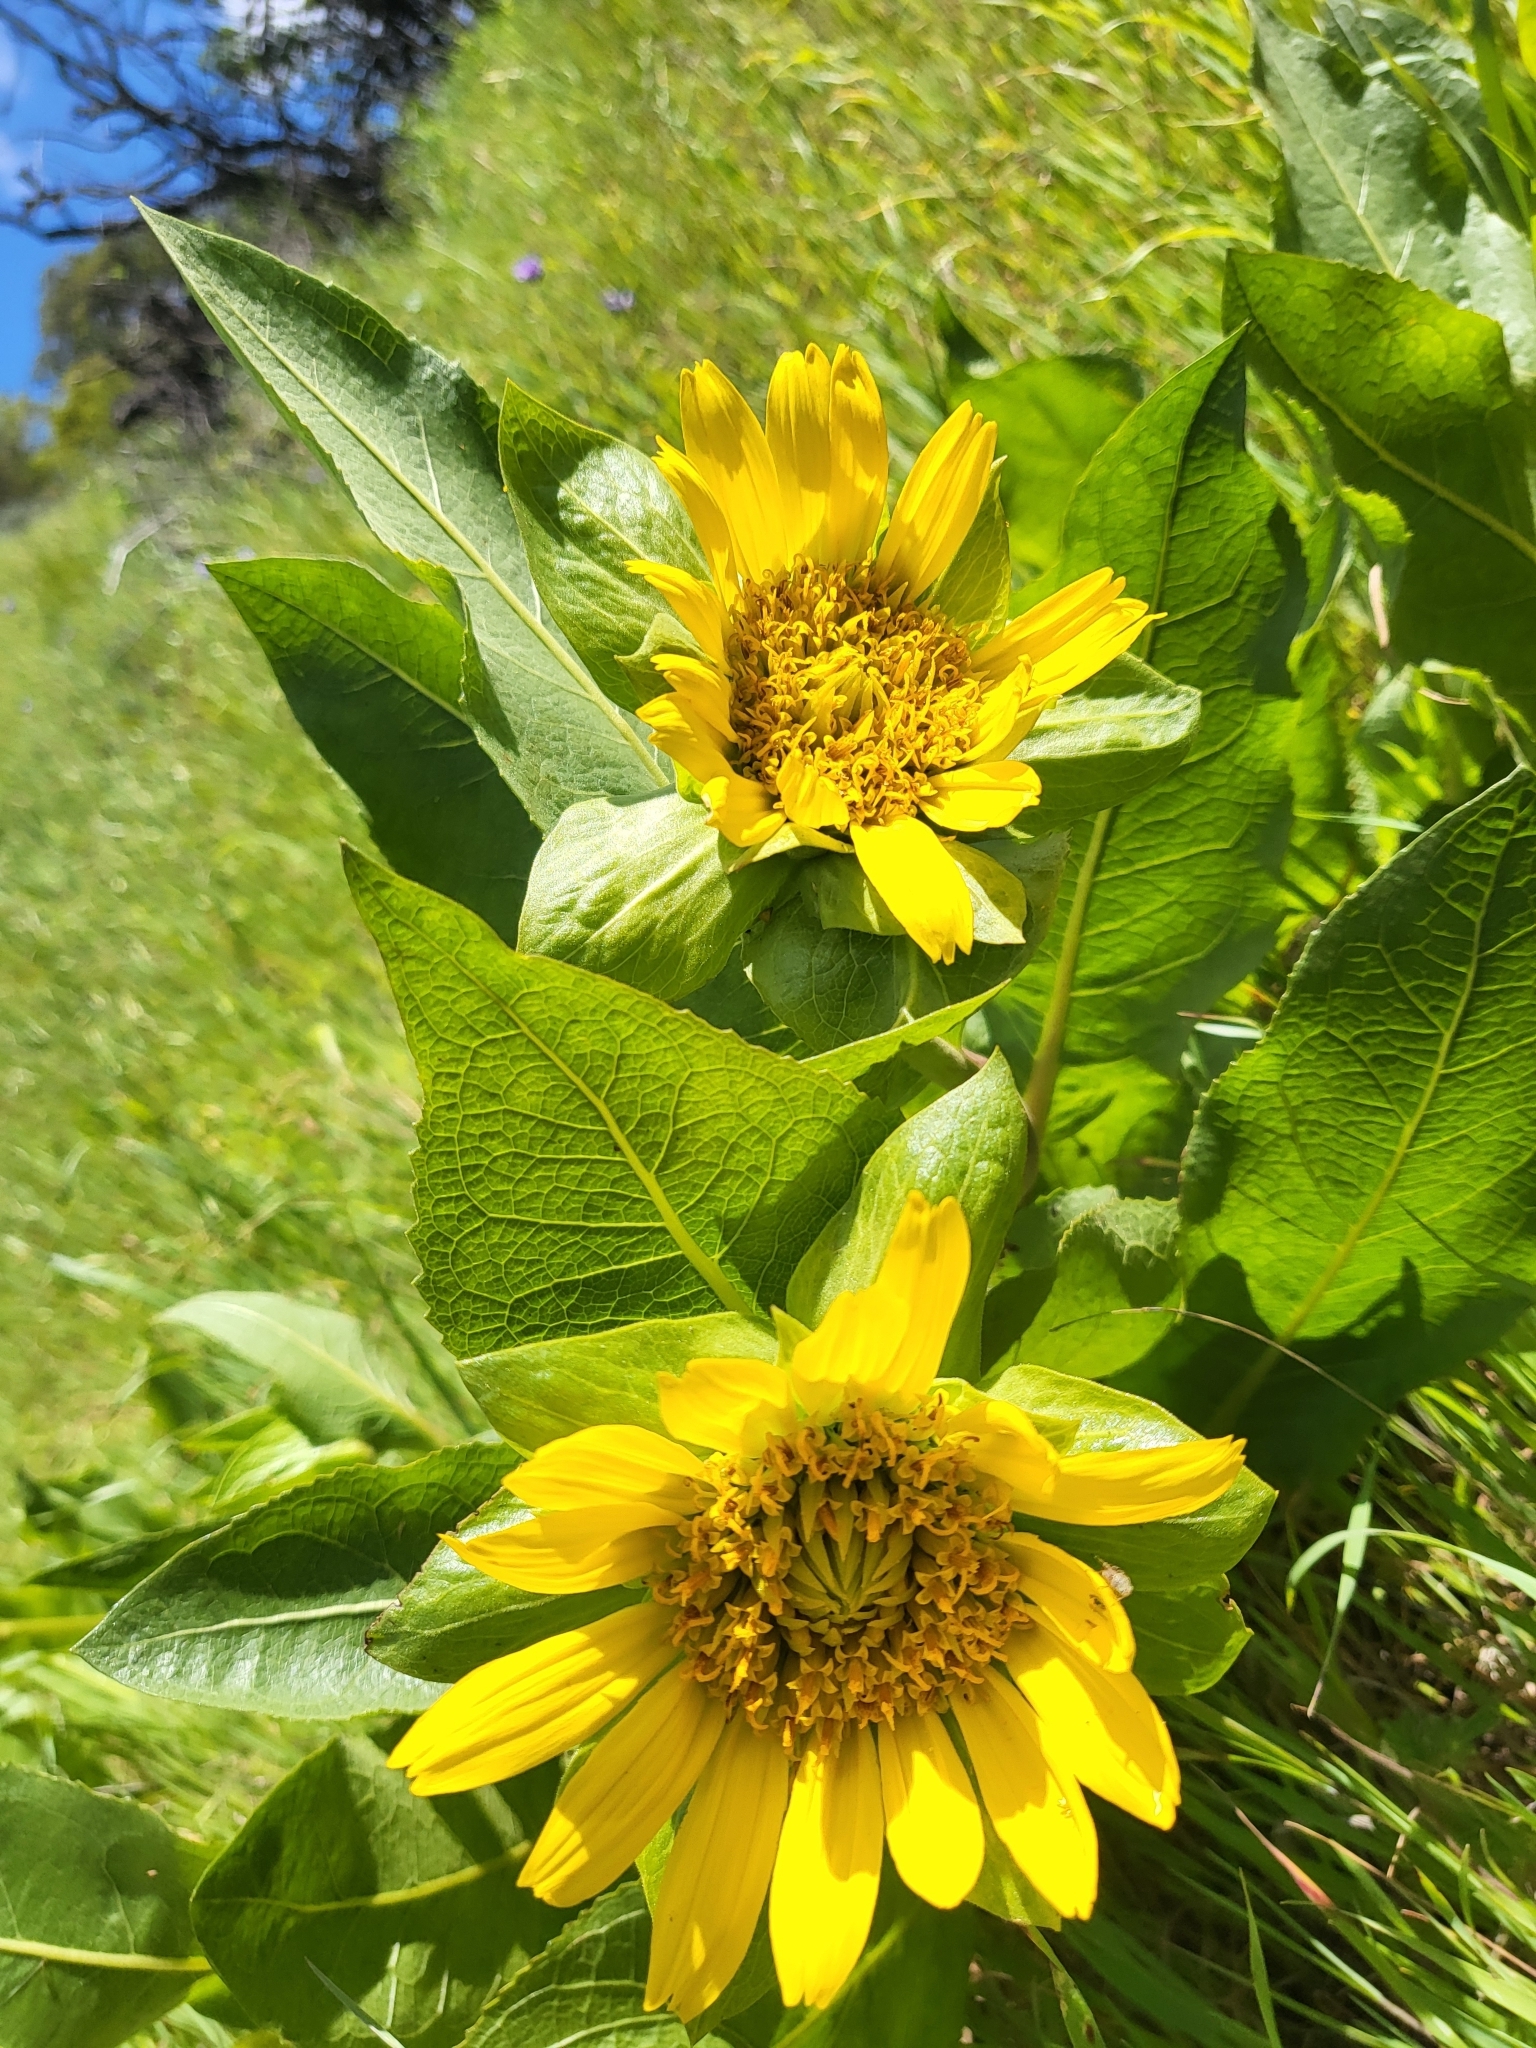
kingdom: Plantae
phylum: Tracheophyta
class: Magnoliopsida
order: Asterales
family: Asteraceae
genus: Wyethia
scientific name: Wyethia glabra
